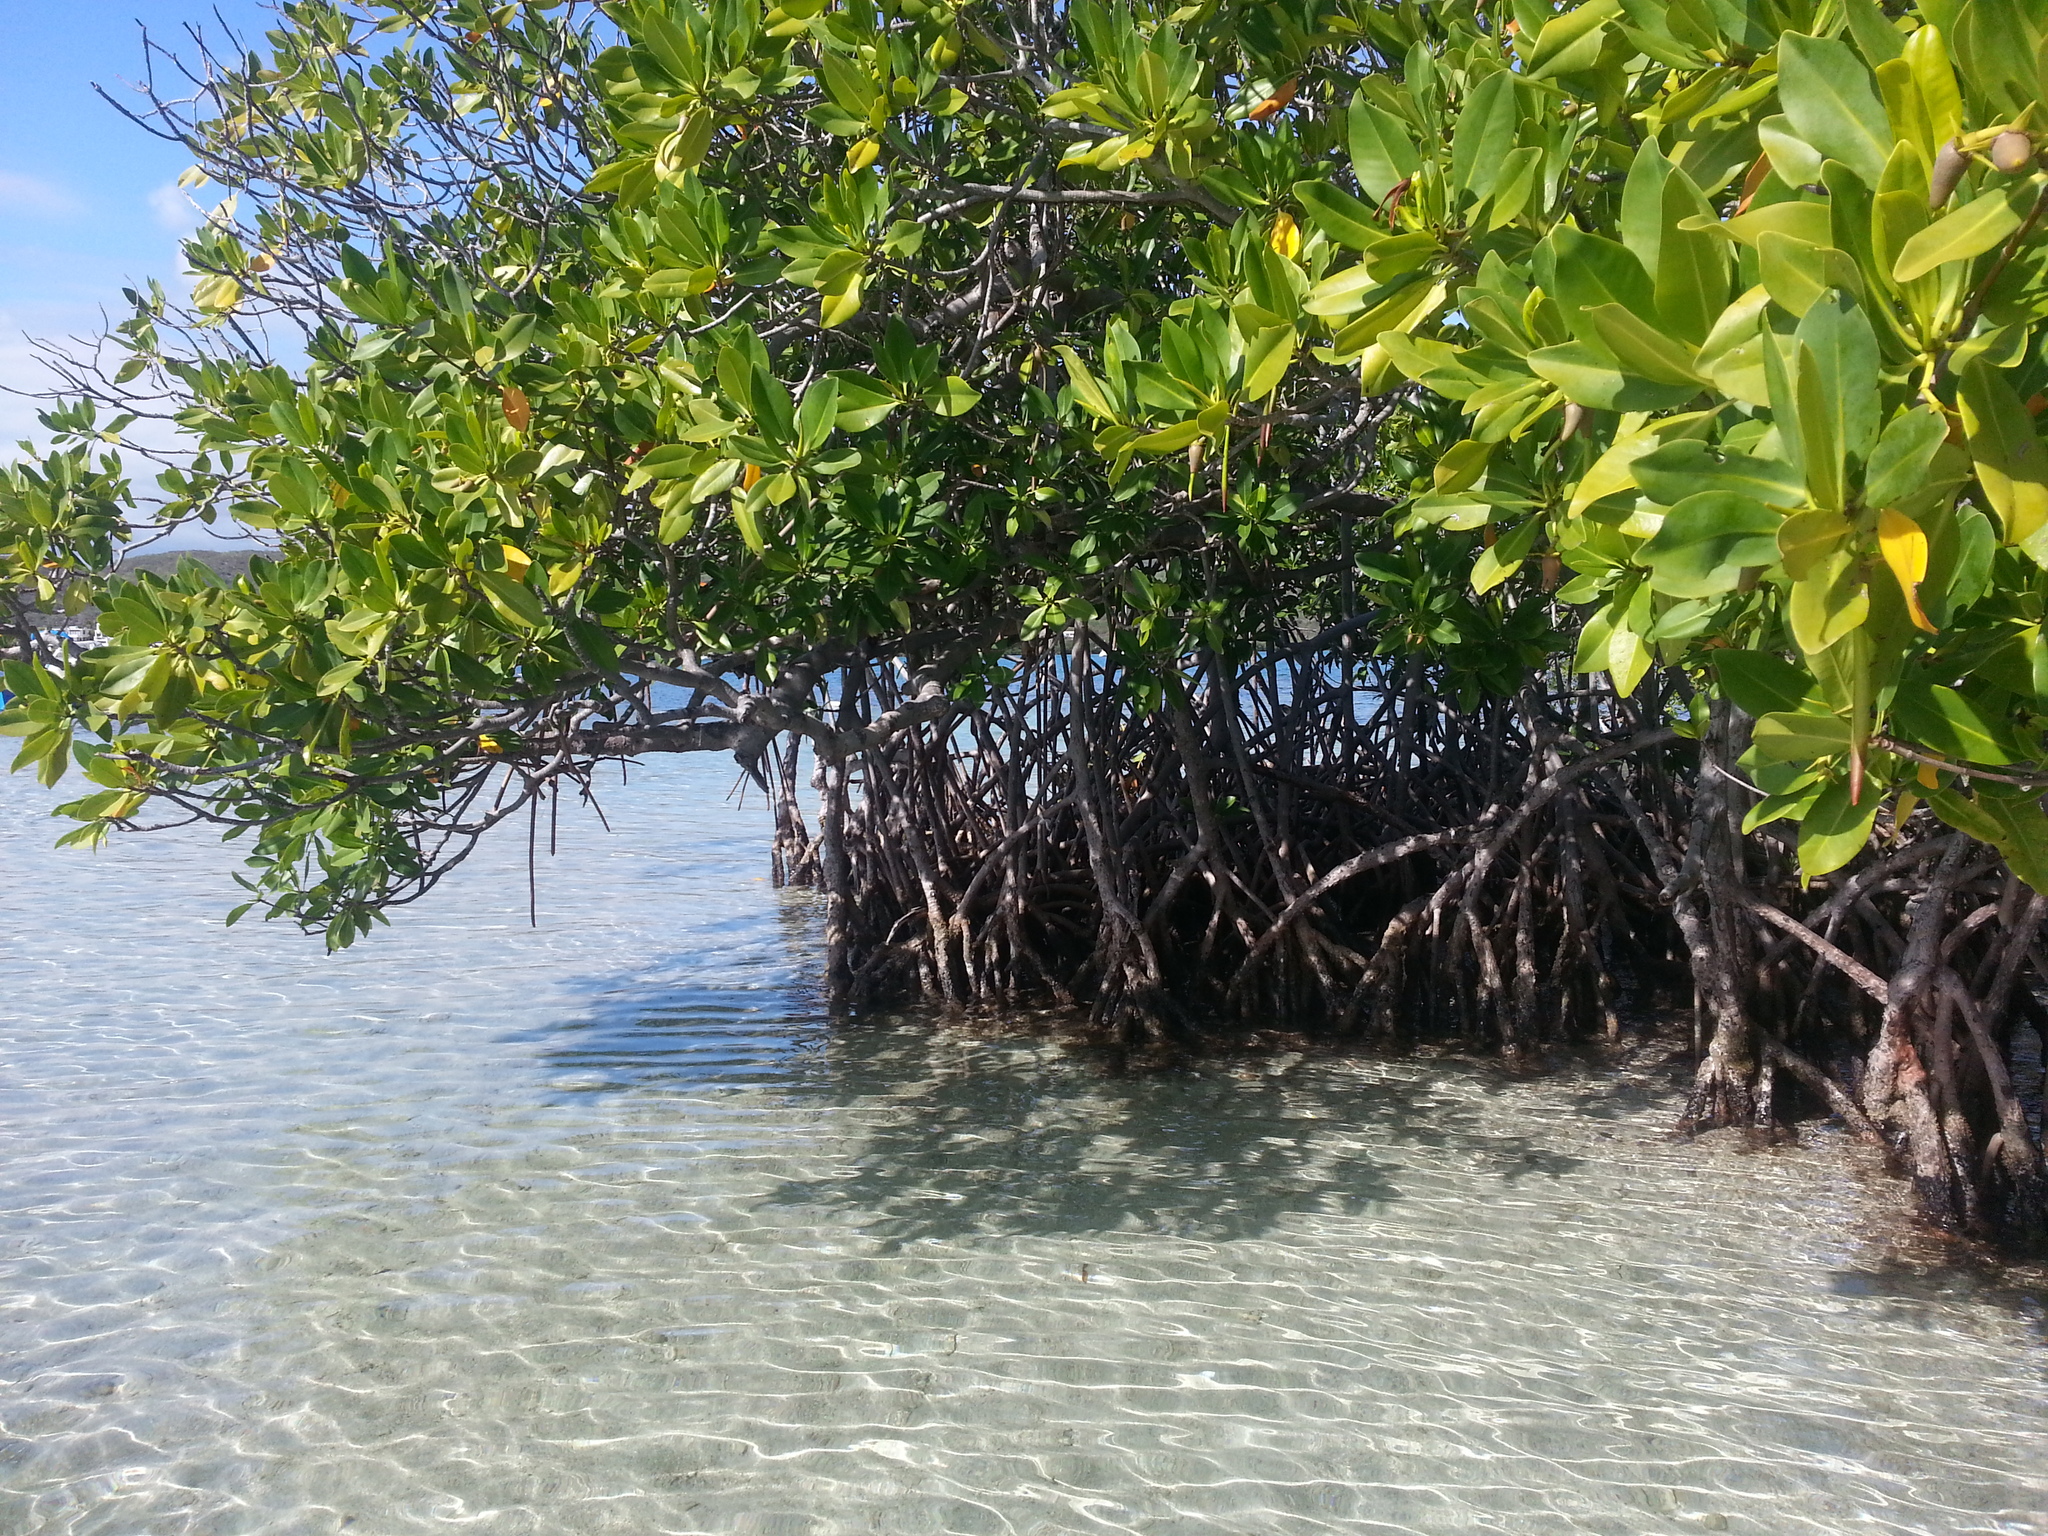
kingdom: Plantae
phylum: Tracheophyta
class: Magnoliopsida
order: Malpighiales
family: Rhizophoraceae
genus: Rhizophora
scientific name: Rhizophora mangle
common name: Red mangrove
